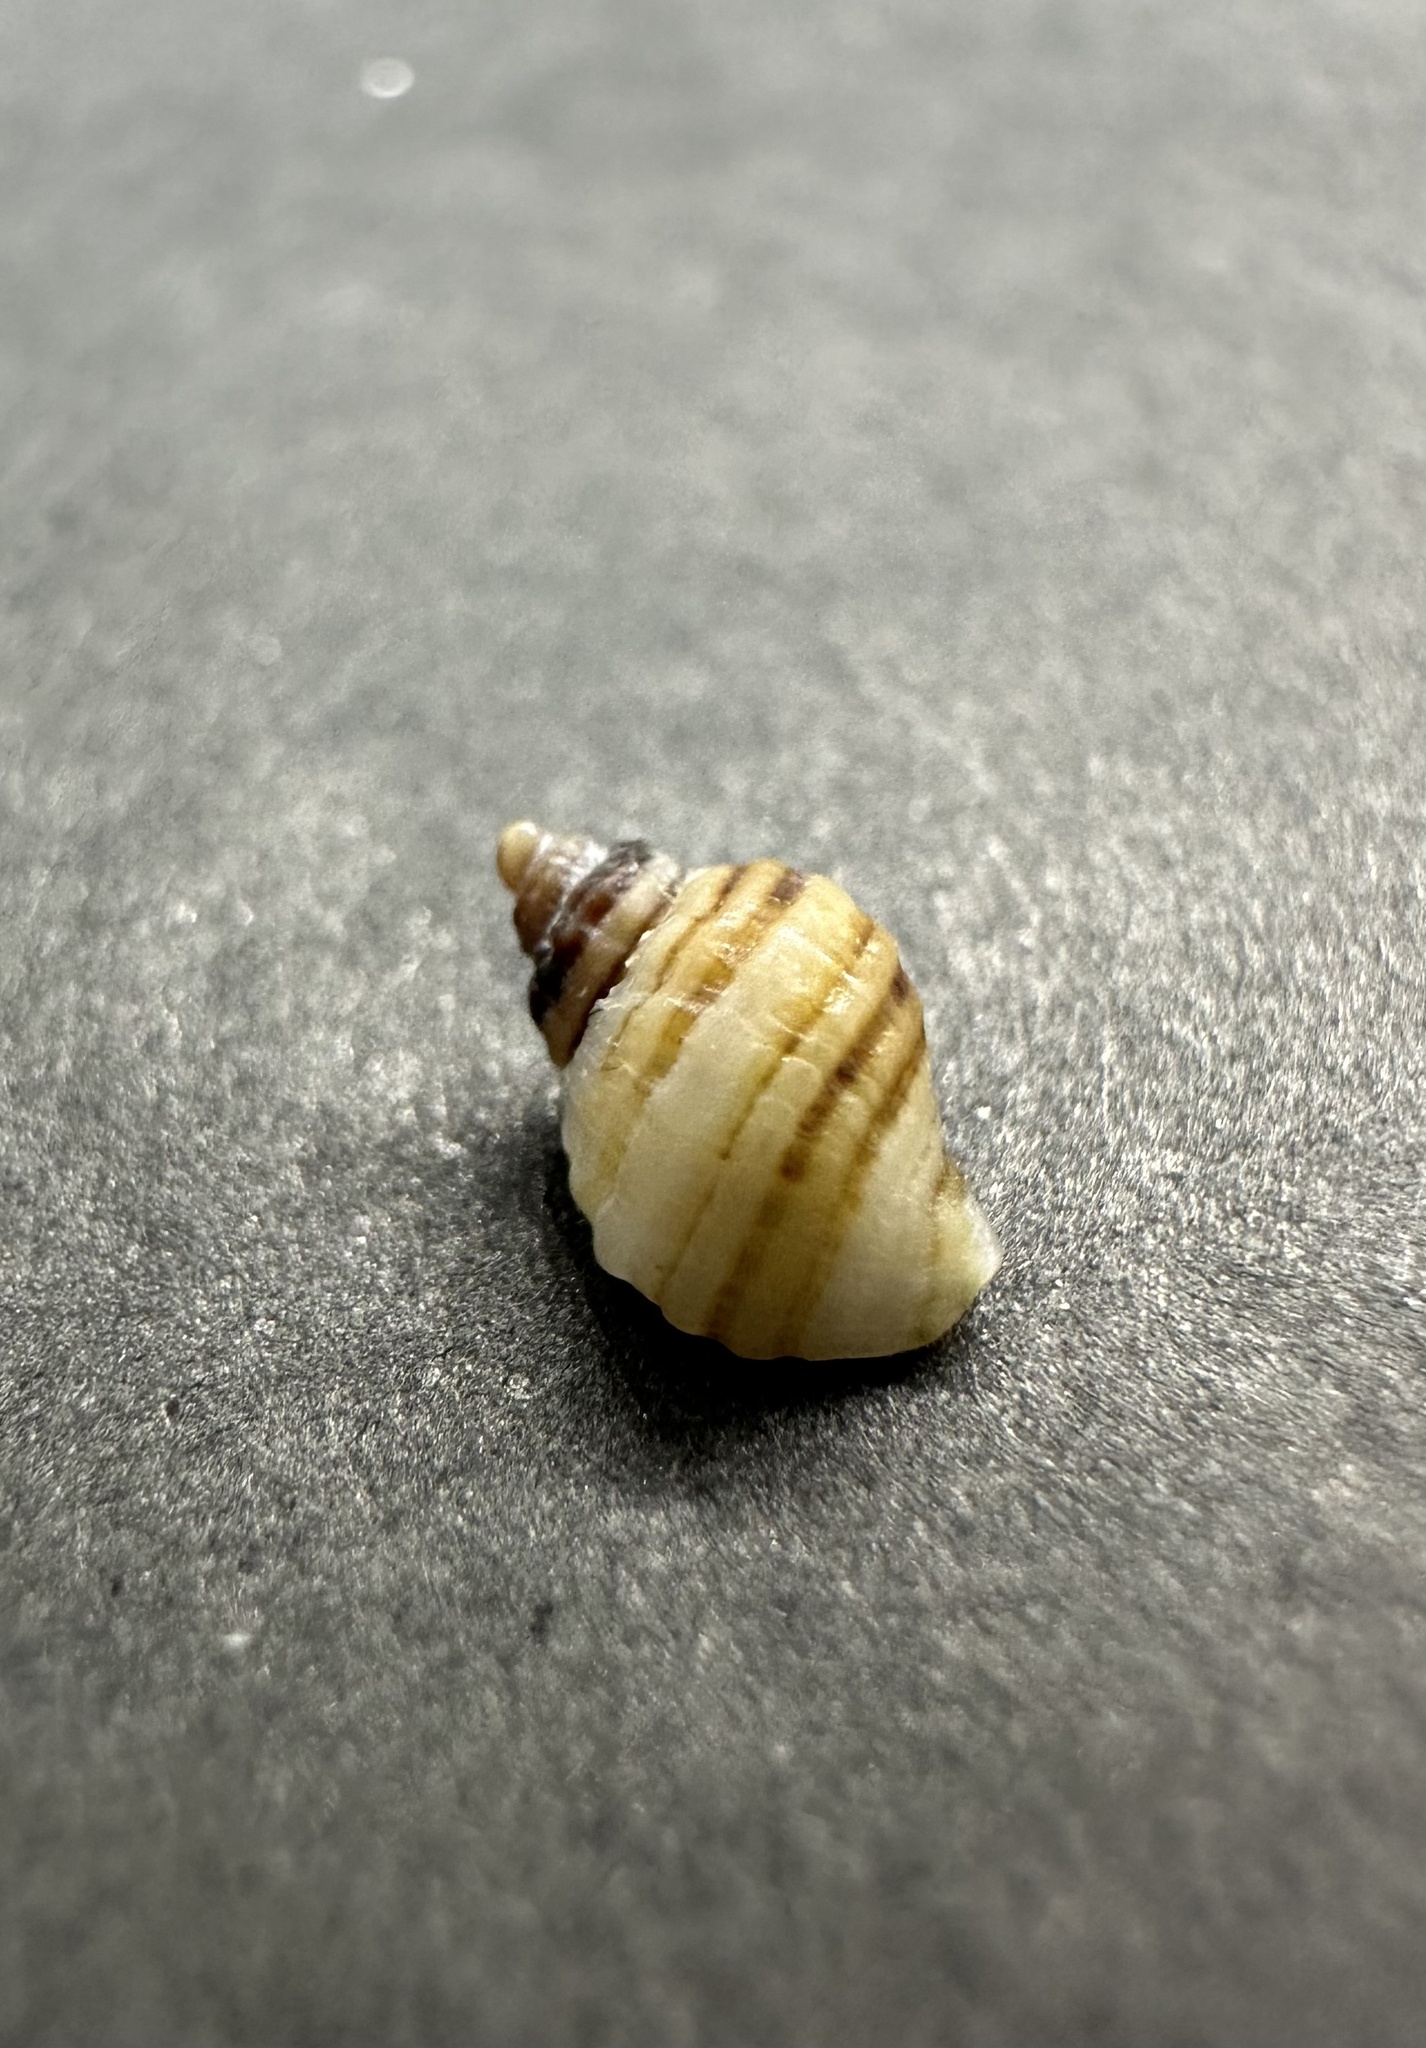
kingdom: Animalia
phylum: Mollusca
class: Gastropoda
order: Neogastropoda
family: Muricidae
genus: Nucella
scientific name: Nucella lapillus
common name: Dog whelk
